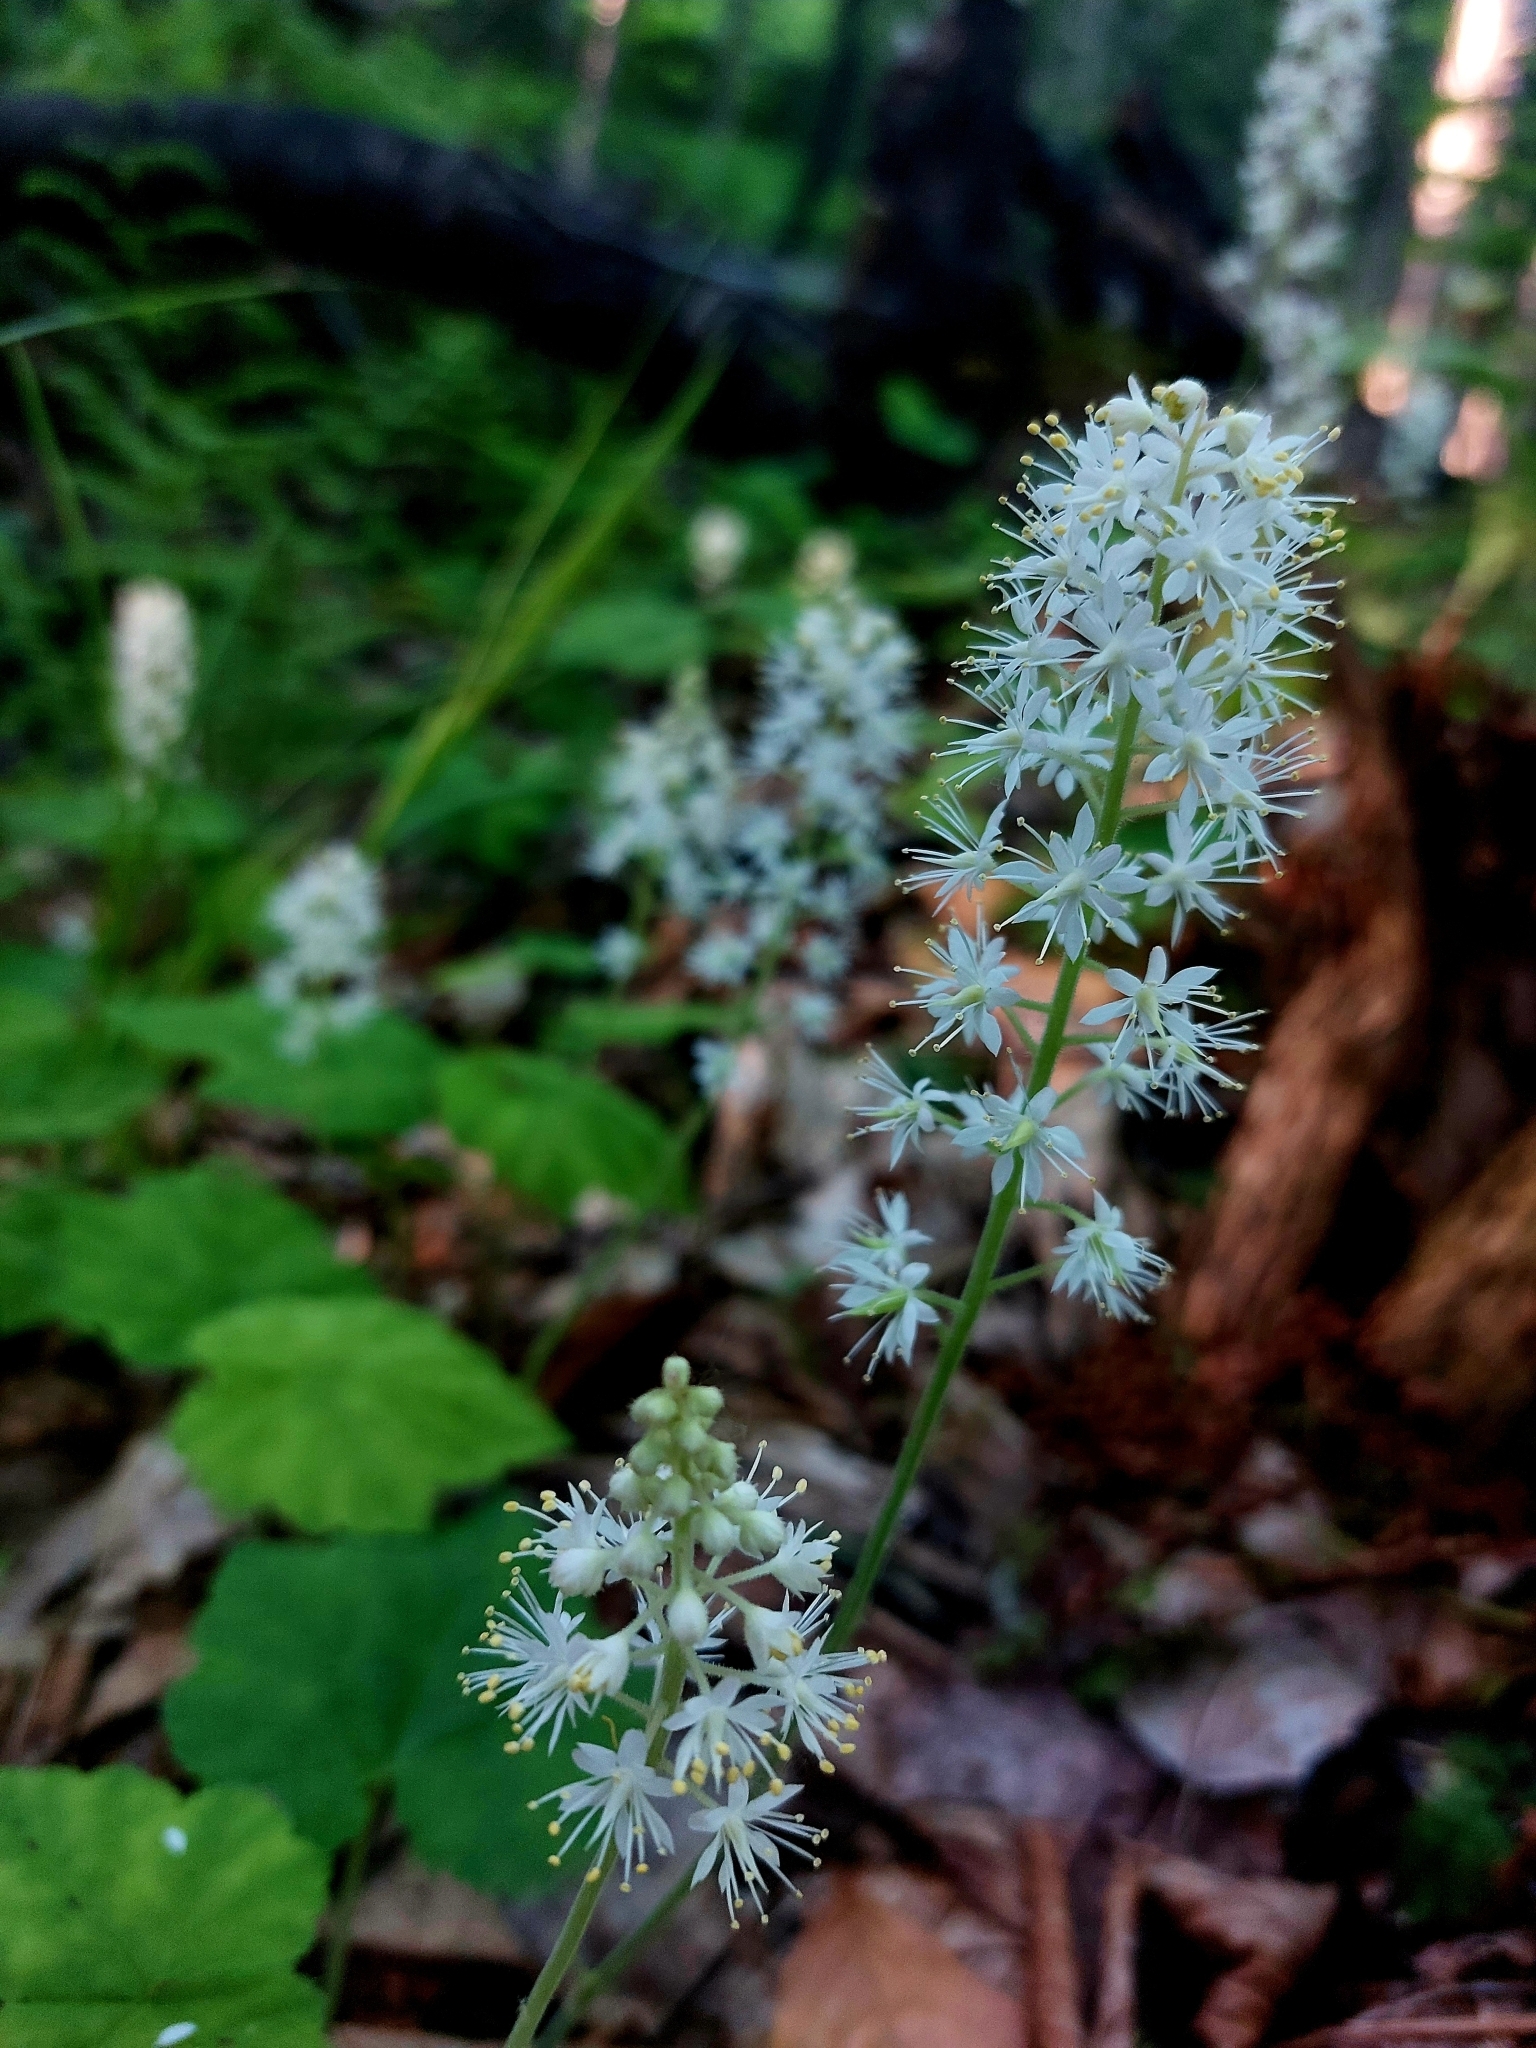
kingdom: Plantae
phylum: Tracheophyta
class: Magnoliopsida
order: Saxifragales
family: Saxifragaceae
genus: Tiarella
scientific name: Tiarella stolonifera
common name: Stoloniferous foamflower
